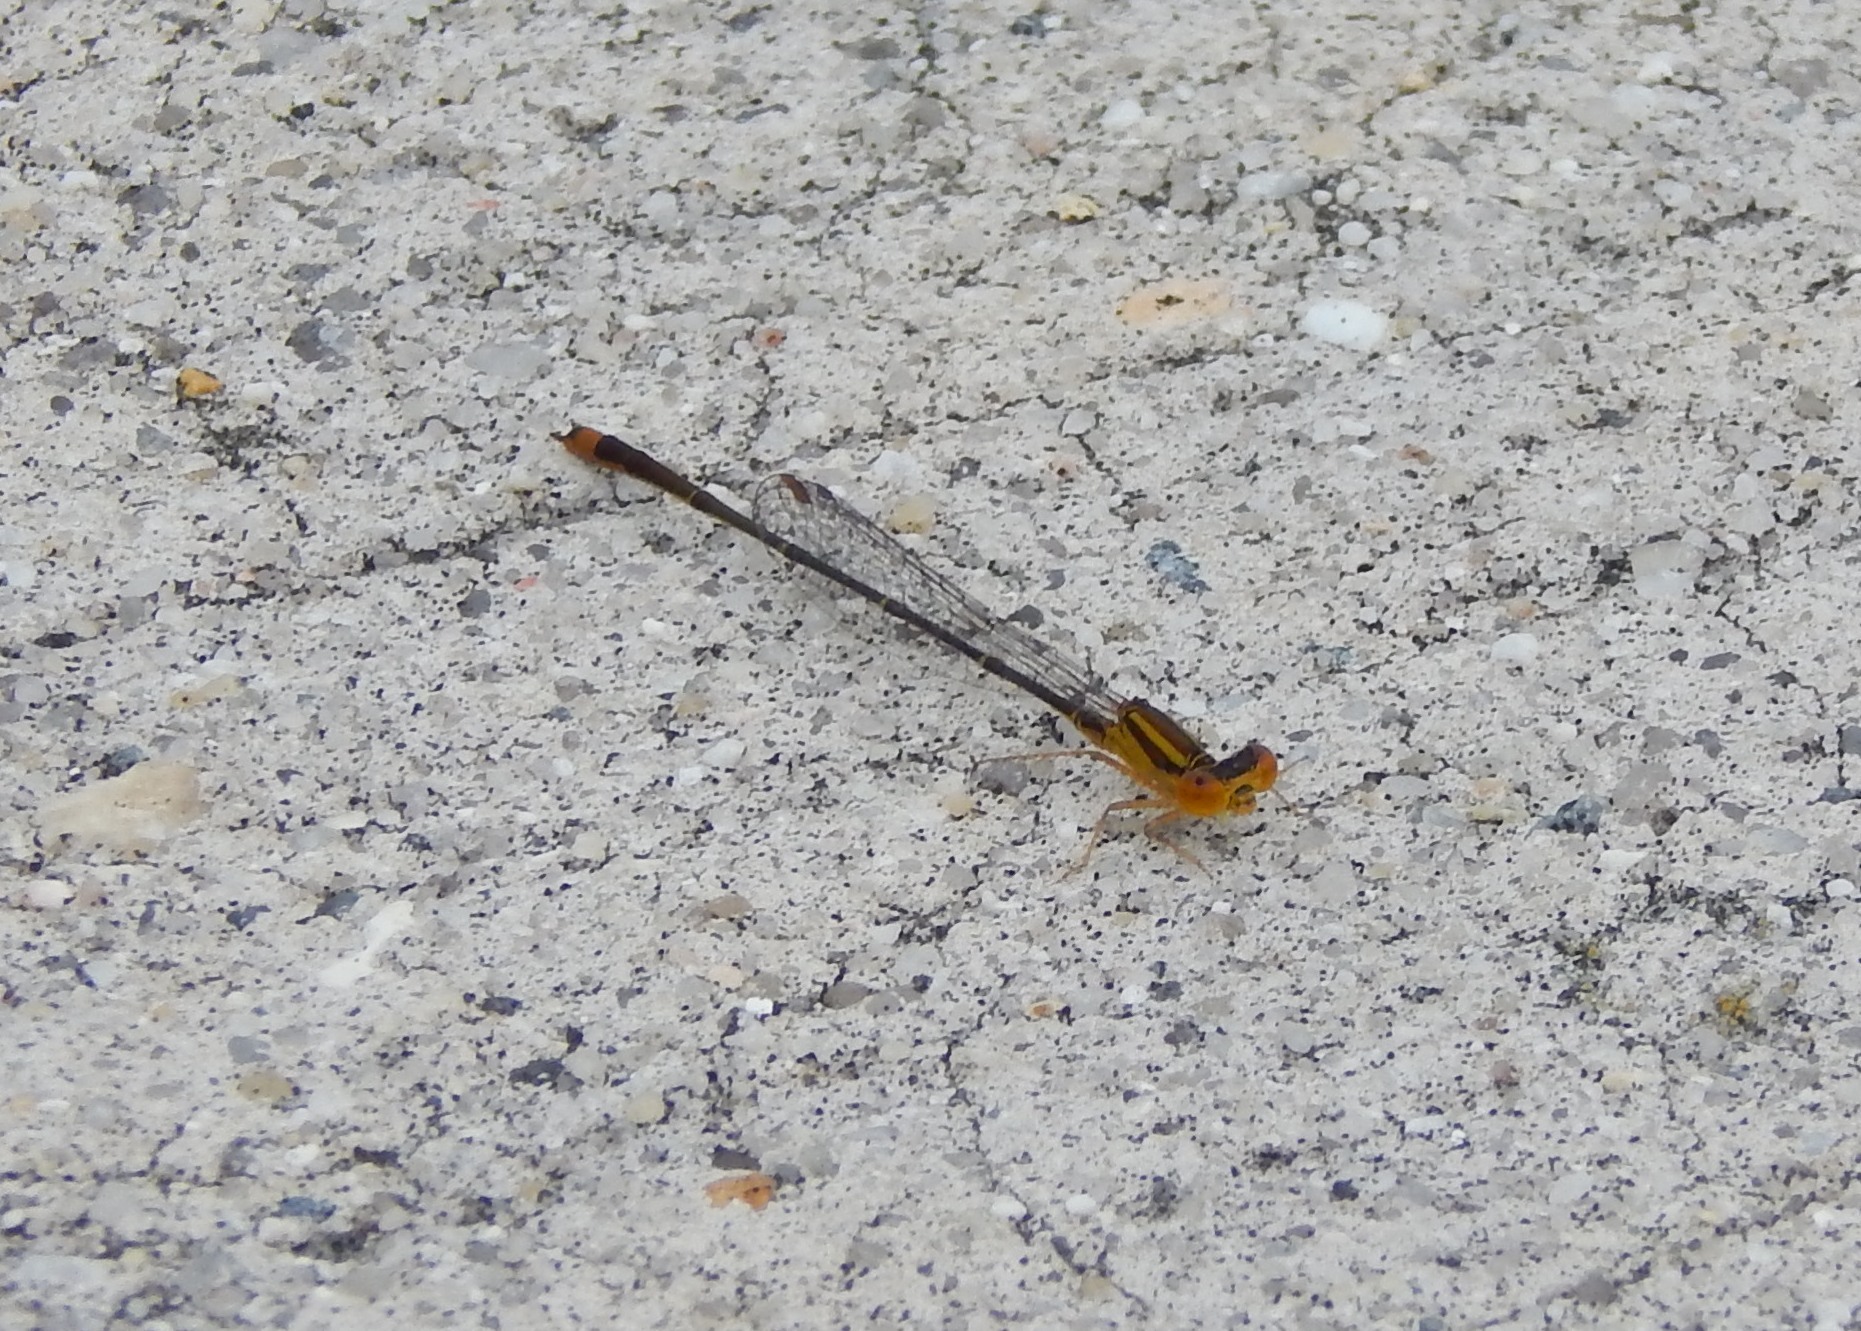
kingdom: Animalia
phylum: Arthropoda
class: Insecta
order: Odonata
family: Coenagrionidae
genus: Enallagma
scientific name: Enallagma signatum
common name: Orange bluet
